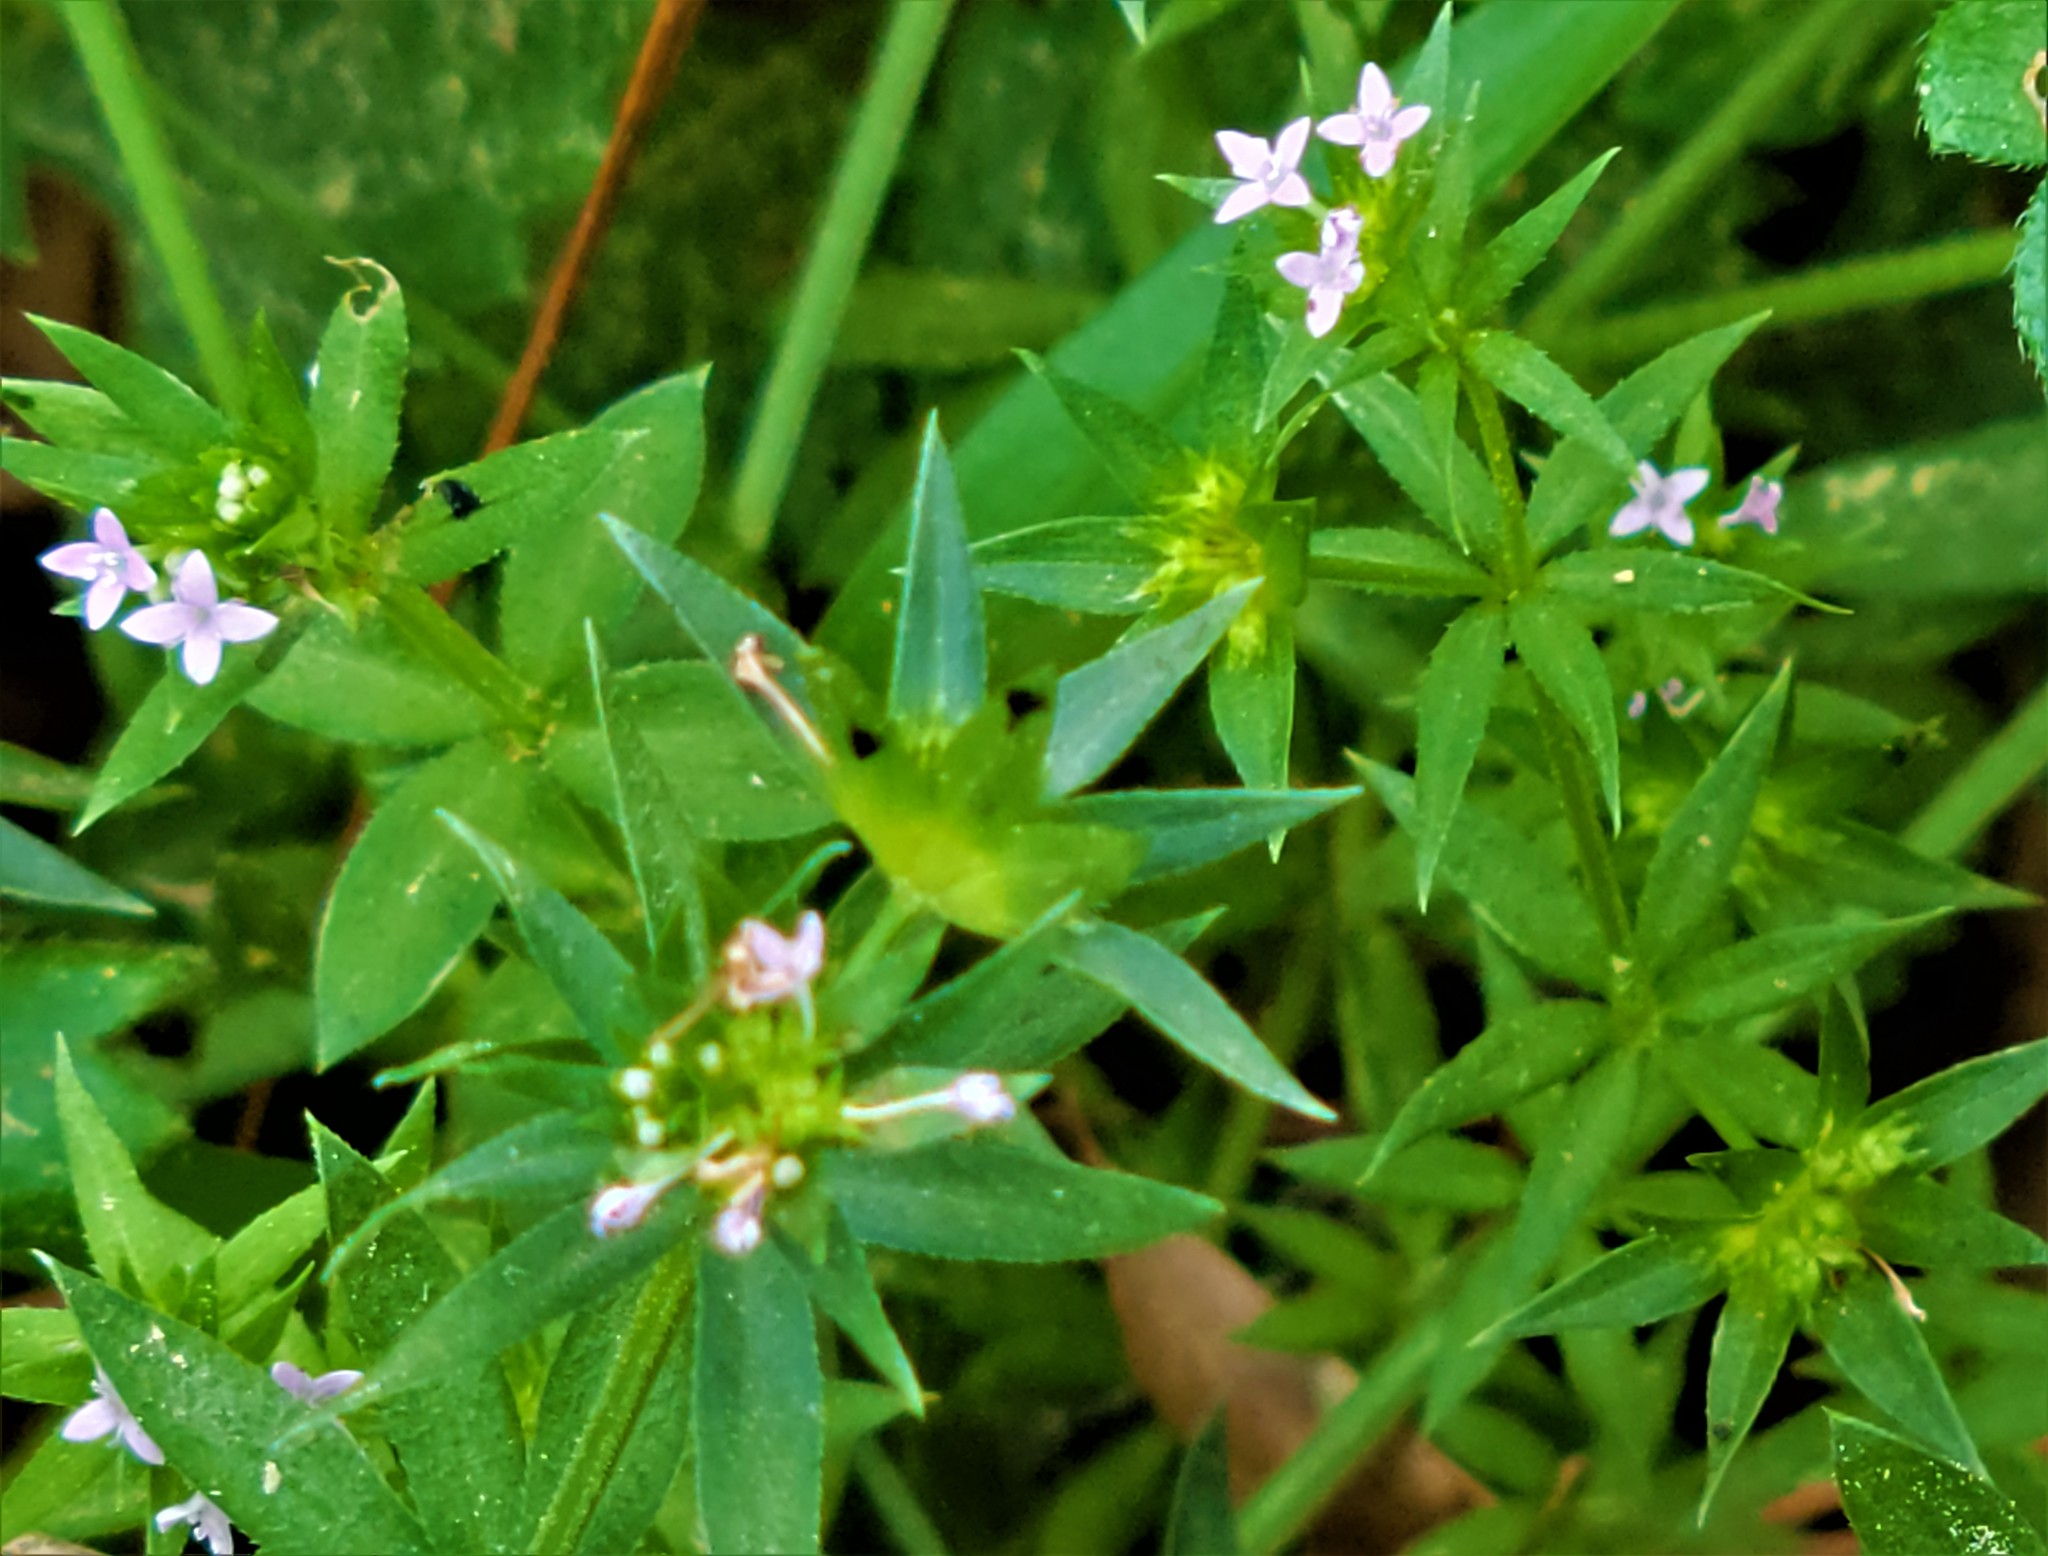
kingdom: Plantae
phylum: Tracheophyta
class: Magnoliopsida
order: Gentianales
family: Rubiaceae
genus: Sherardia
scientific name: Sherardia arvensis
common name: Field madder
